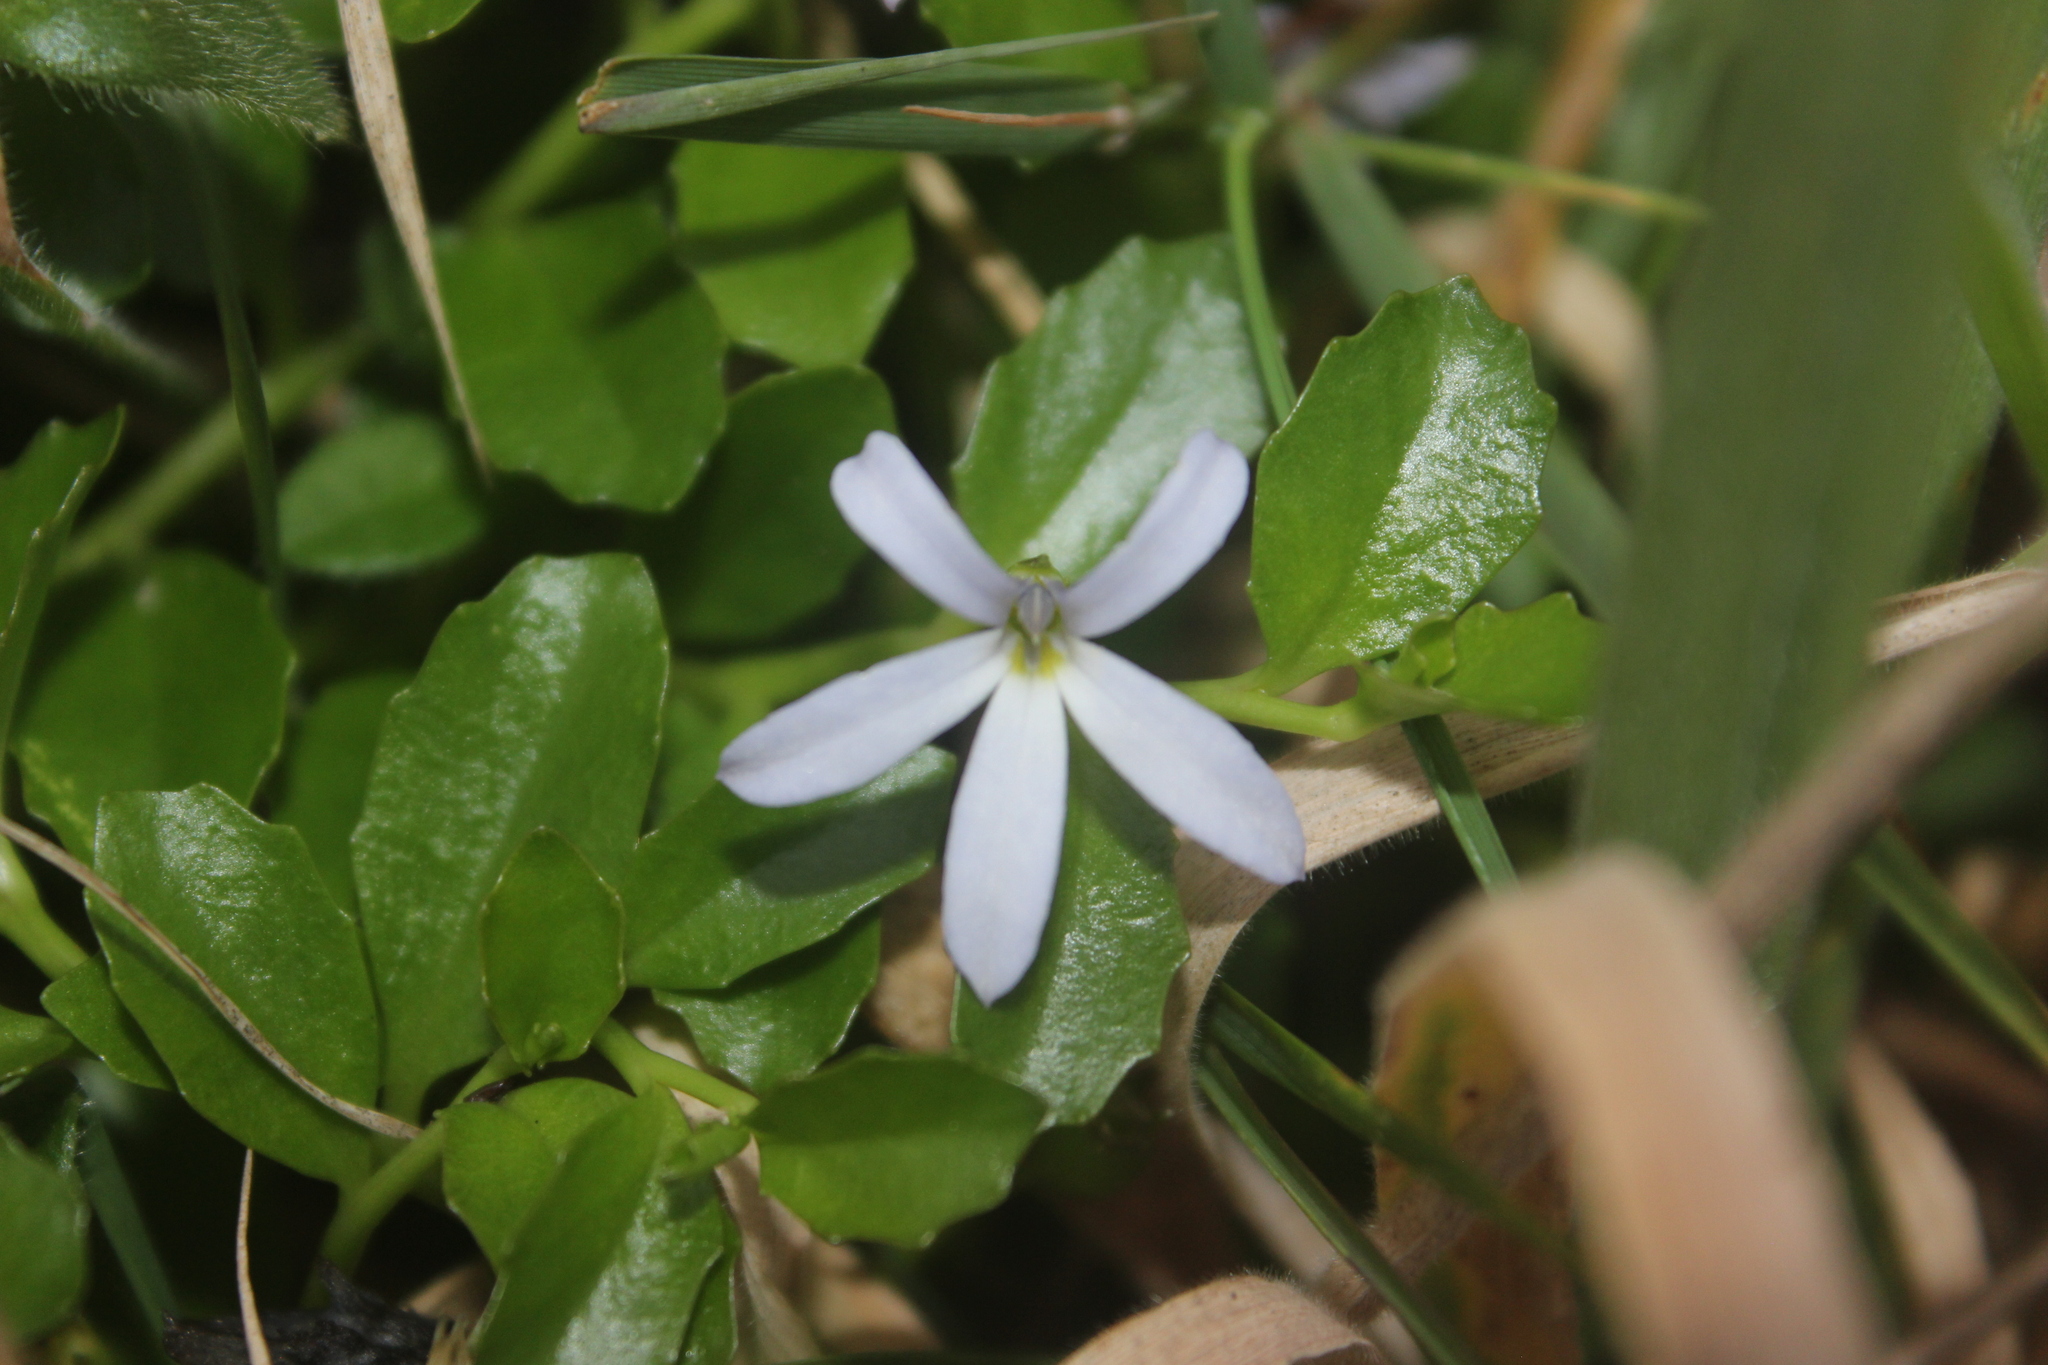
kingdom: Plantae
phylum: Tracheophyta
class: Magnoliopsida
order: Asterales
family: Campanulaceae
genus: Lobelia
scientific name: Lobelia arenaria
